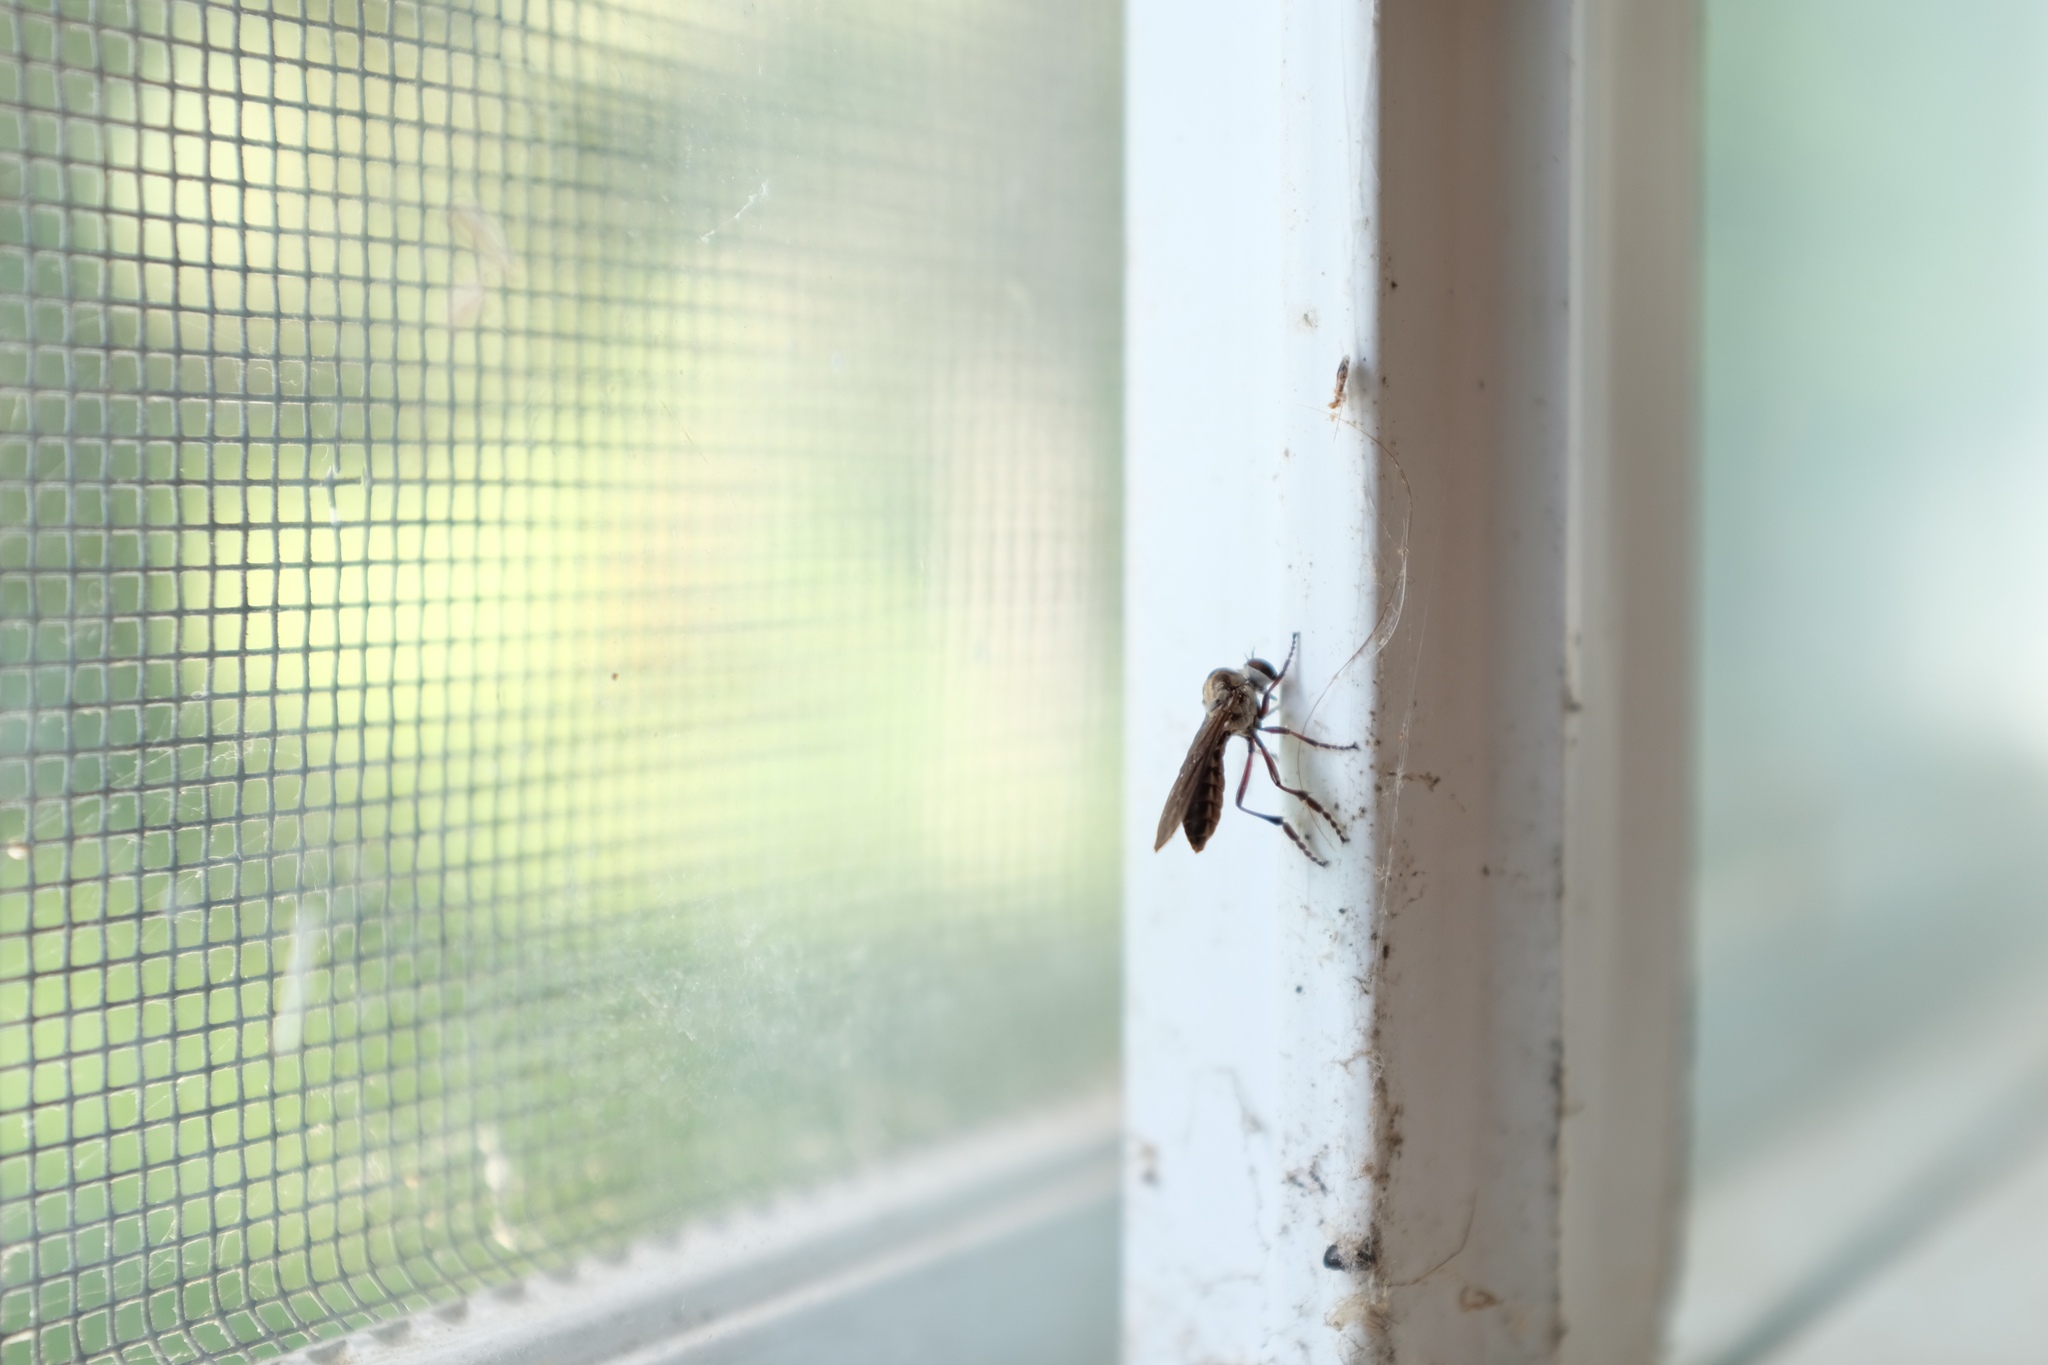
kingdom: Animalia
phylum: Arthropoda
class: Insecta
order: Diptera
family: Asilidae
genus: Holcocephala
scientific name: Holcocephala calva
